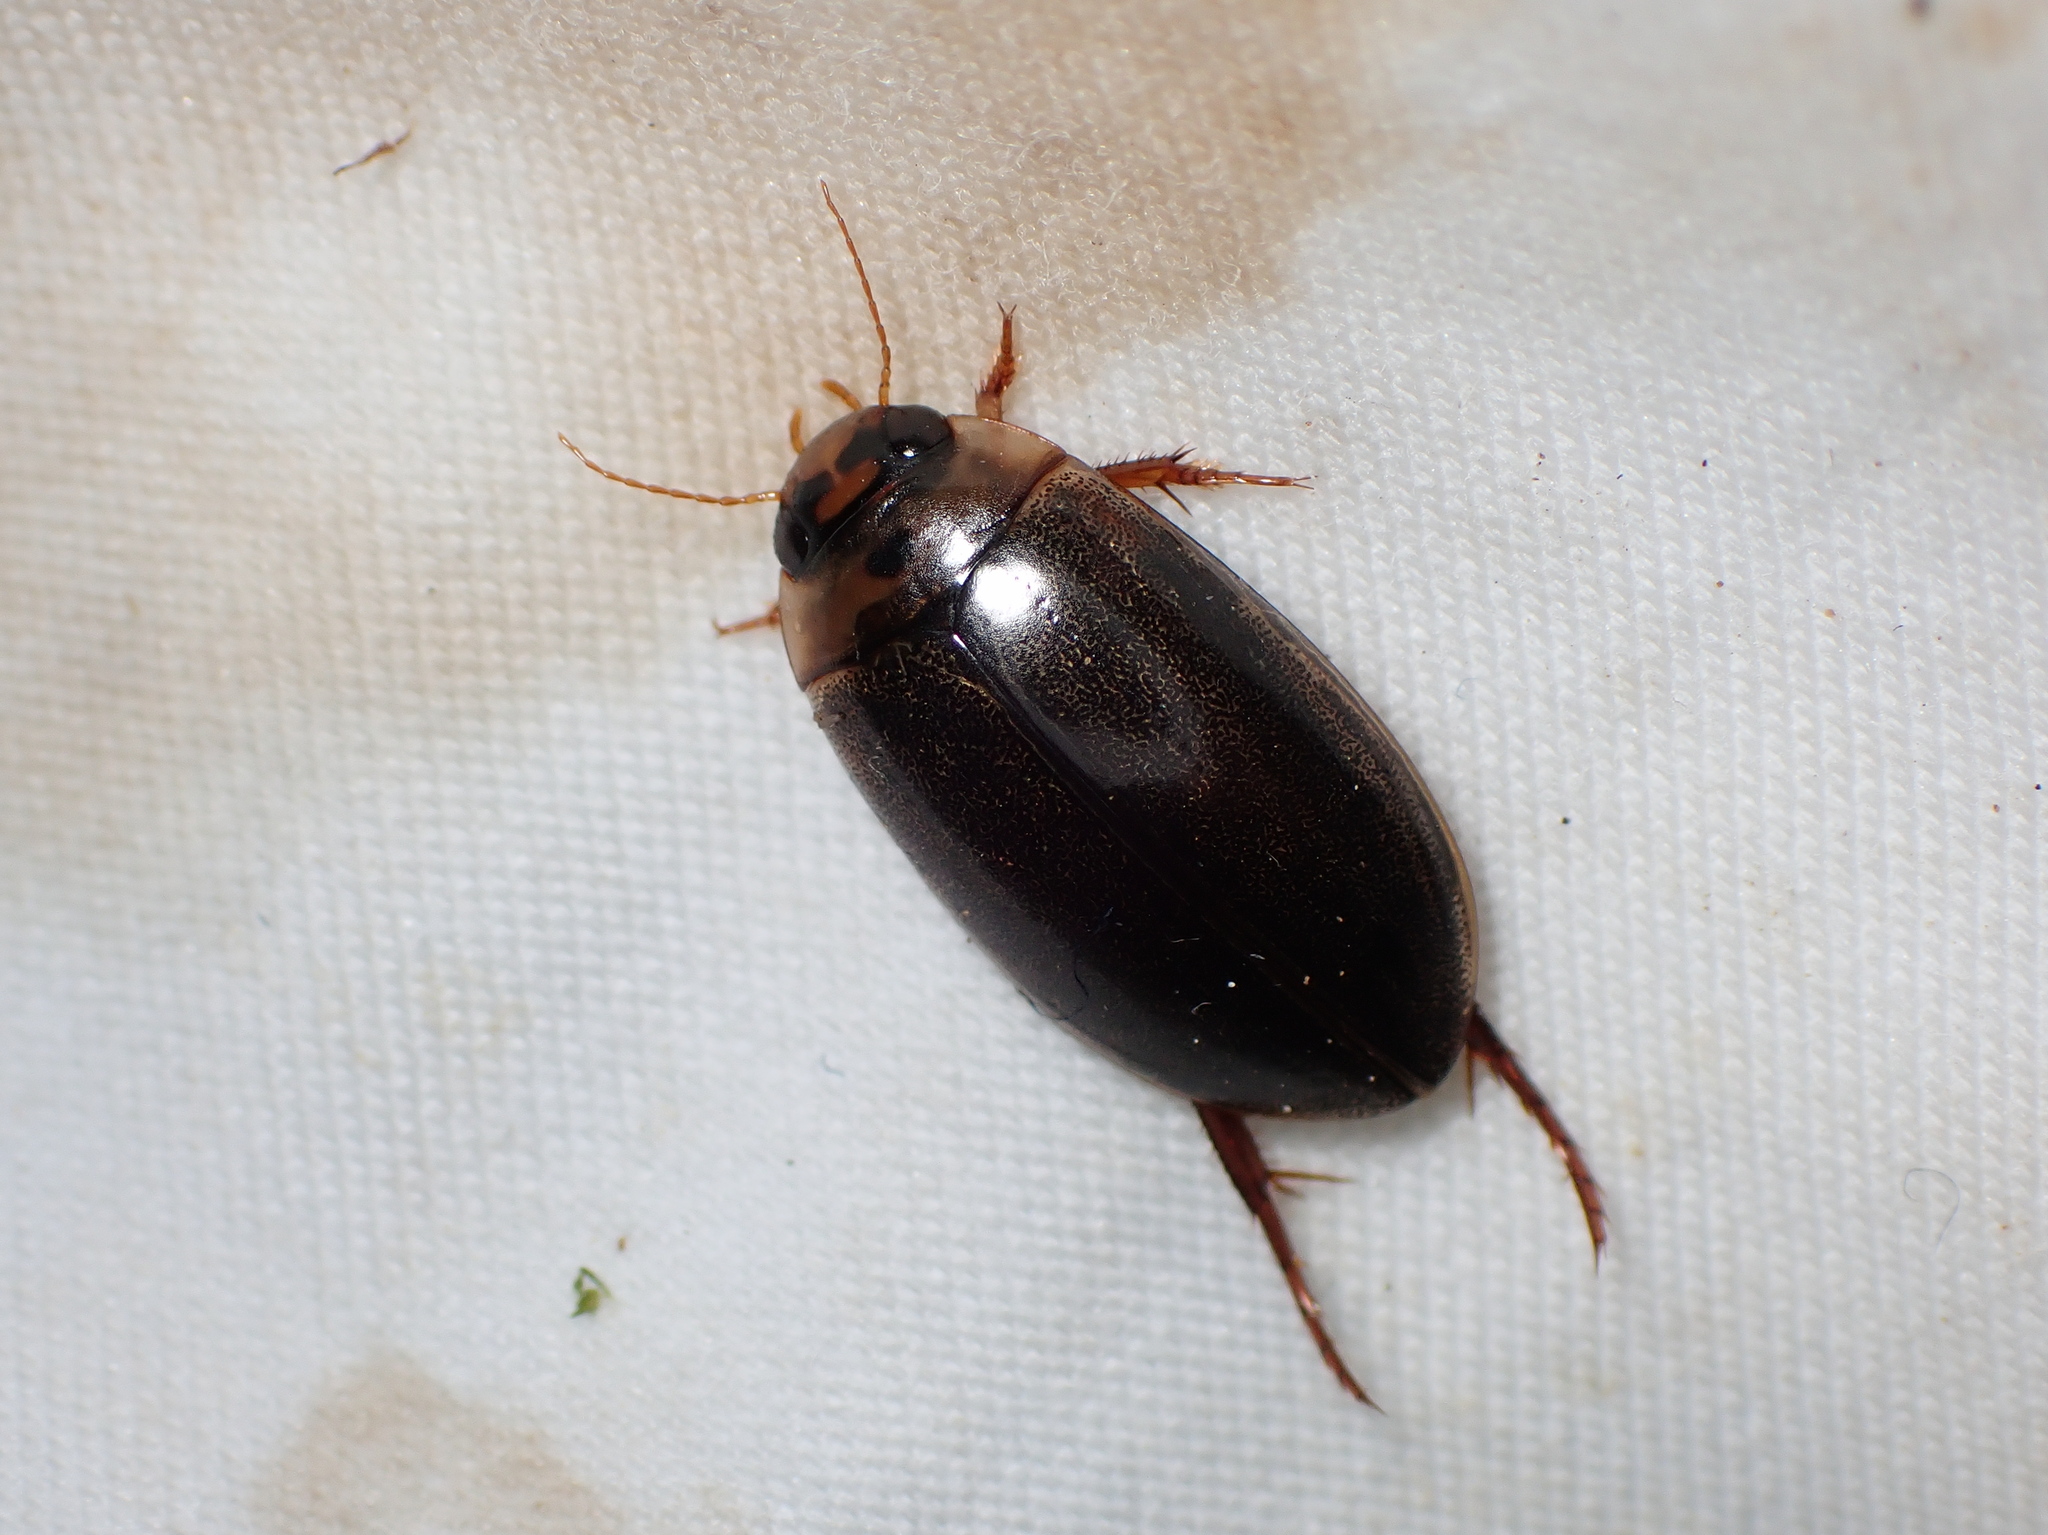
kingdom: Animalia
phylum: Arthropoda
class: Insecta
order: Coleoptera
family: Dytiscidae
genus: Rhantus
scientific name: Rhantus suturalis
